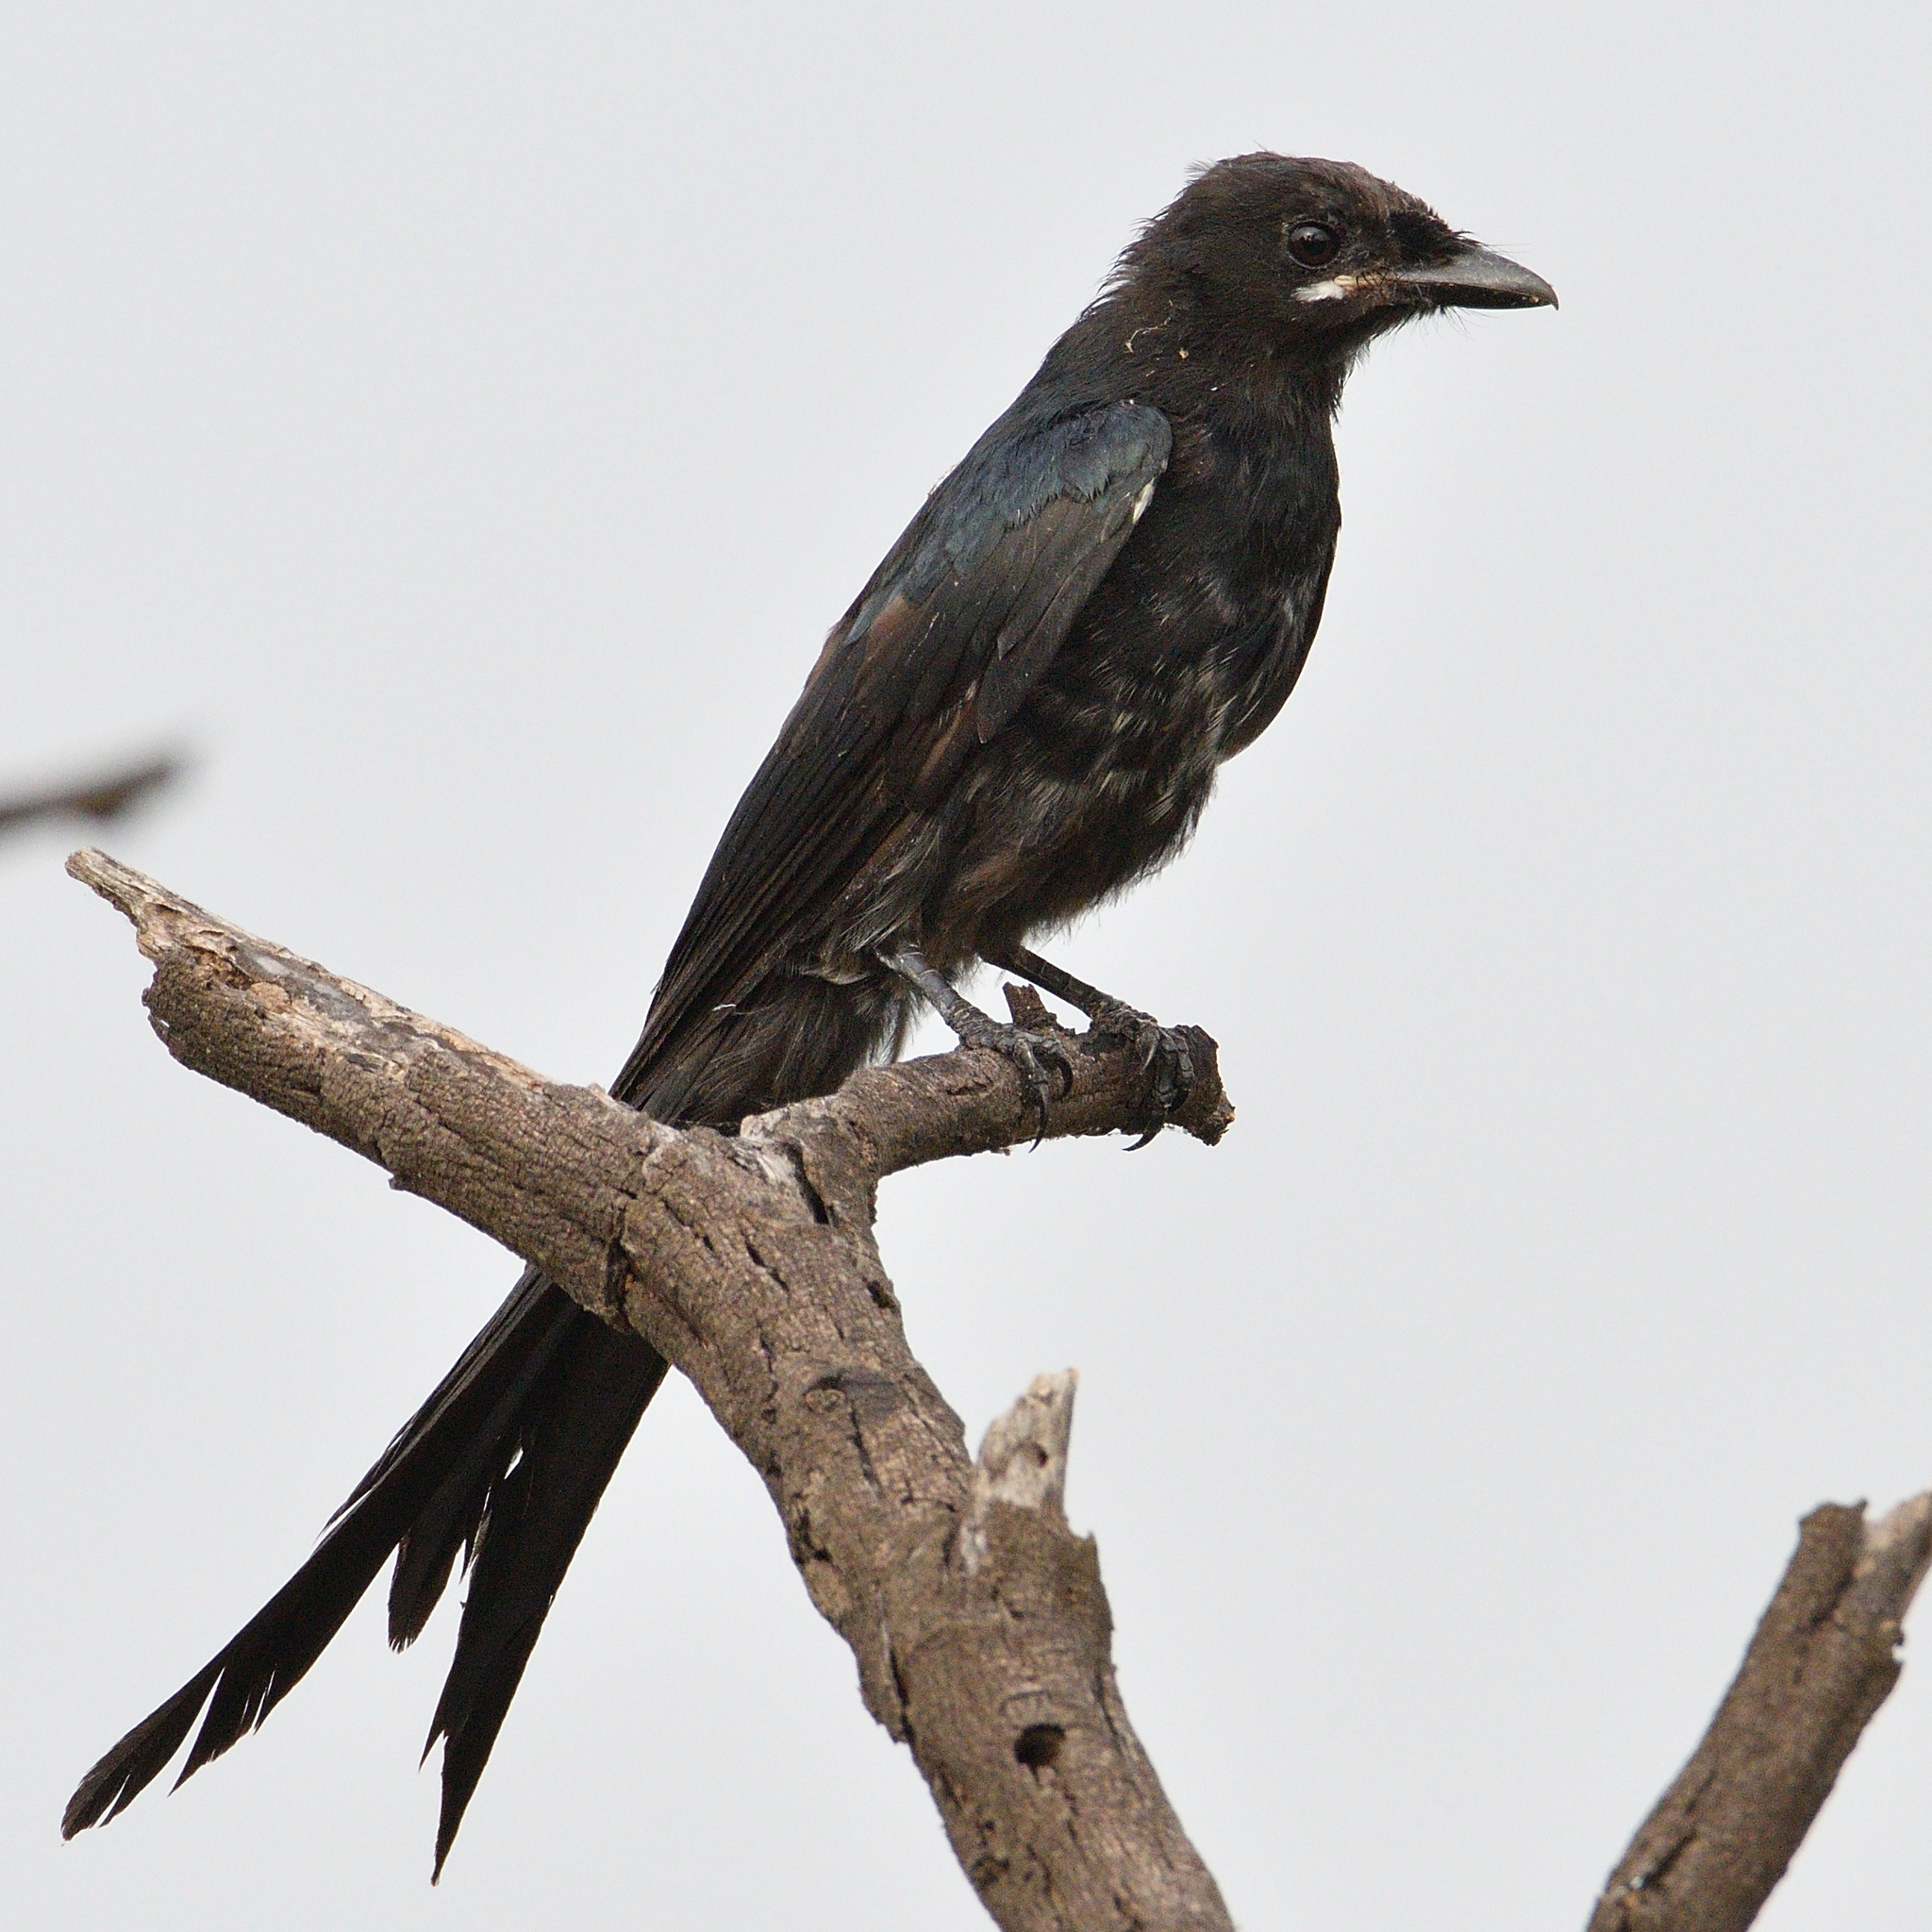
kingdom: Animalia
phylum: Chordata
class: Aves
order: Passeriformes
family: Dicruridae
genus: Dicrurus
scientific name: Dicrurus macrocercus
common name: Black drongo
